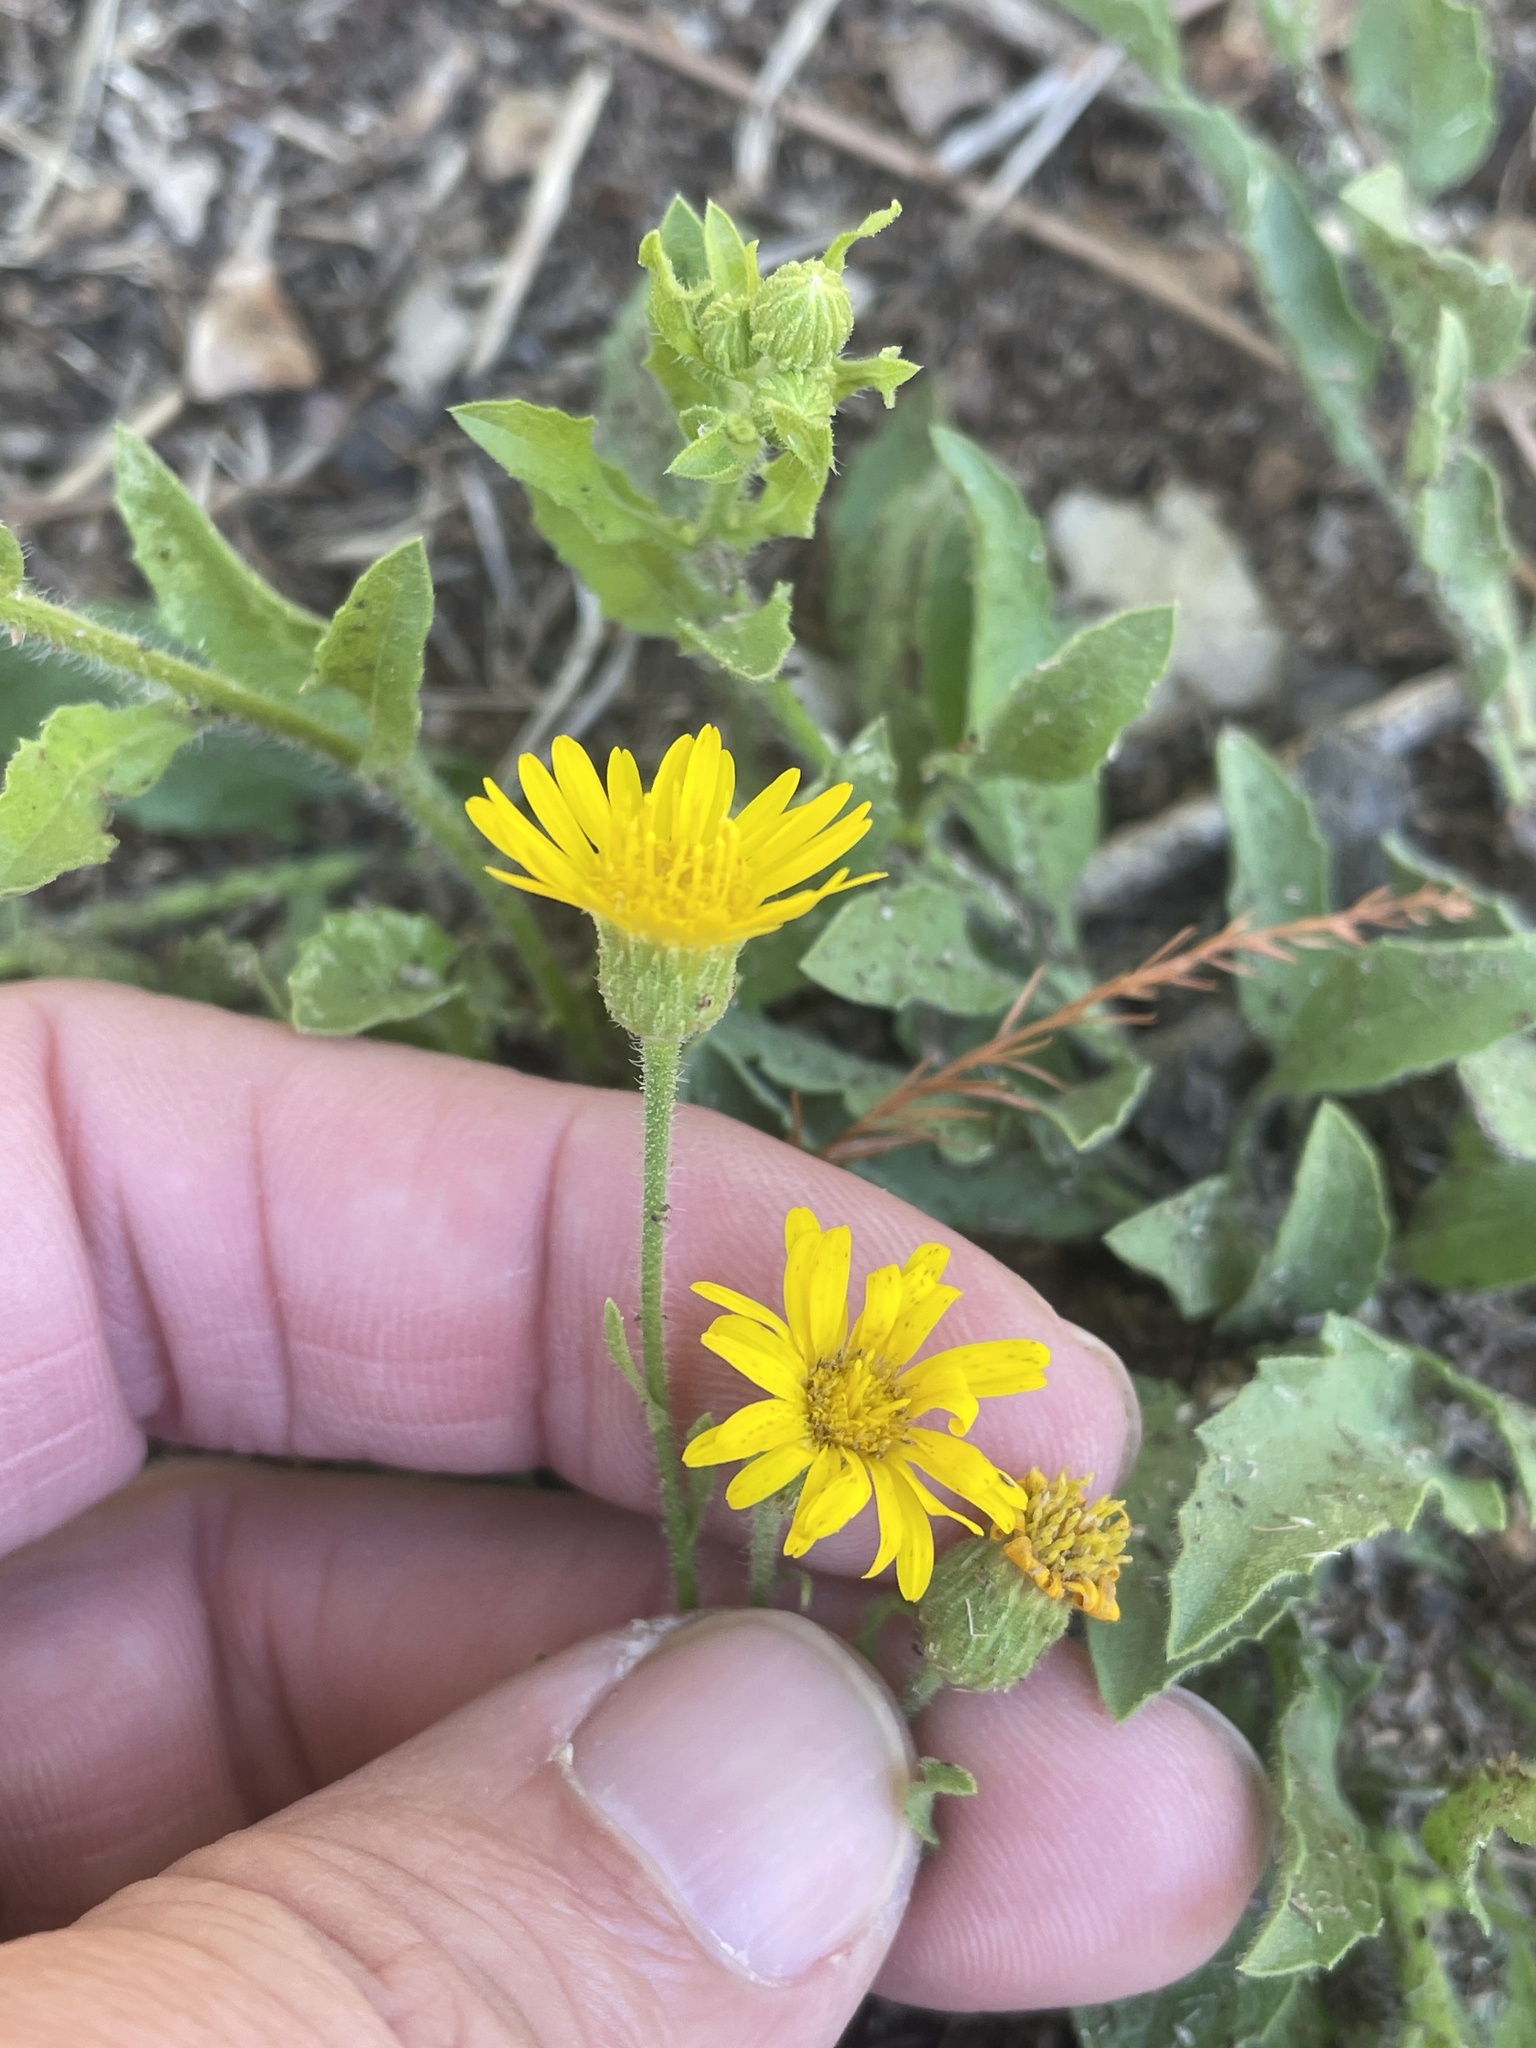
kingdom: Plantae
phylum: Tracheophyta
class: Magnoliopsida
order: Asterales
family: Asteraceae
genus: Heterotheca
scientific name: Heterotheca subaxillaris
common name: Camphorweed
